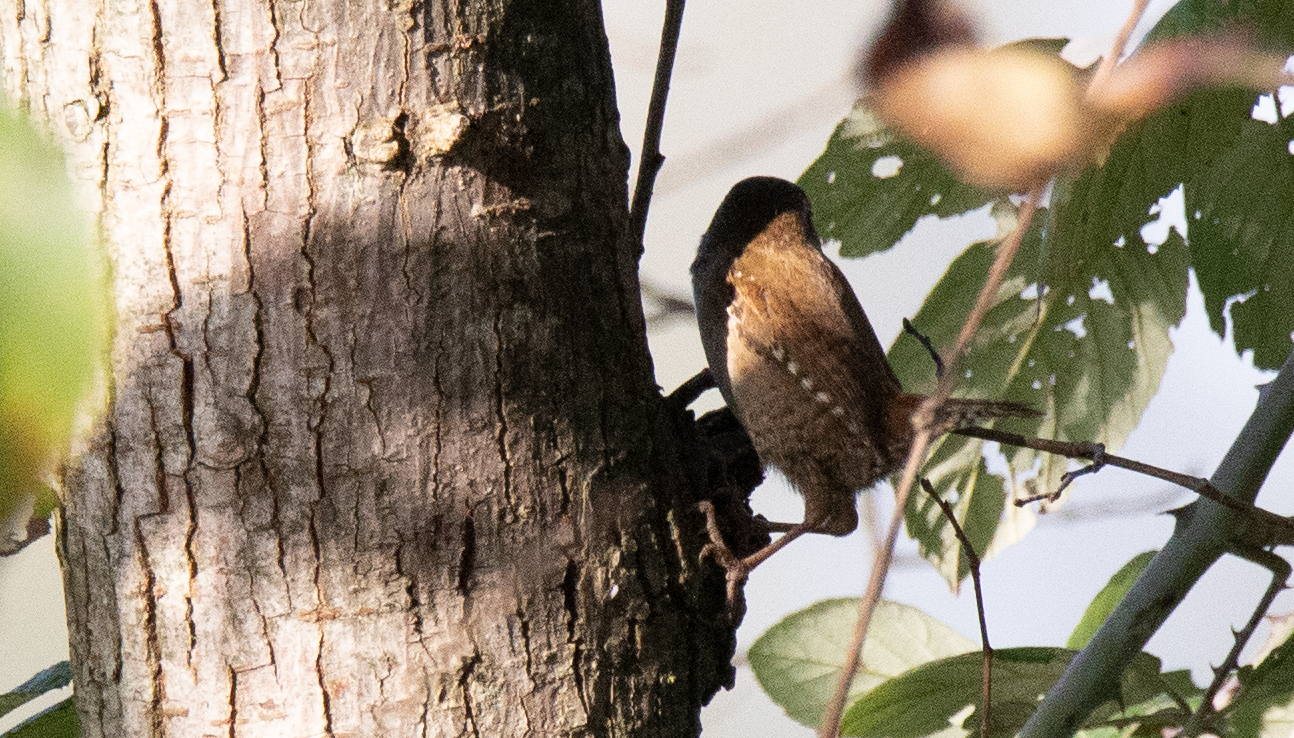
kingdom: Animalia
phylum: Chordata
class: Aves
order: Passeriformes
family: Troglodytidae
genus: Troglodytes
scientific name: Troglodytes troglodytes
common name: Eurasian wren
